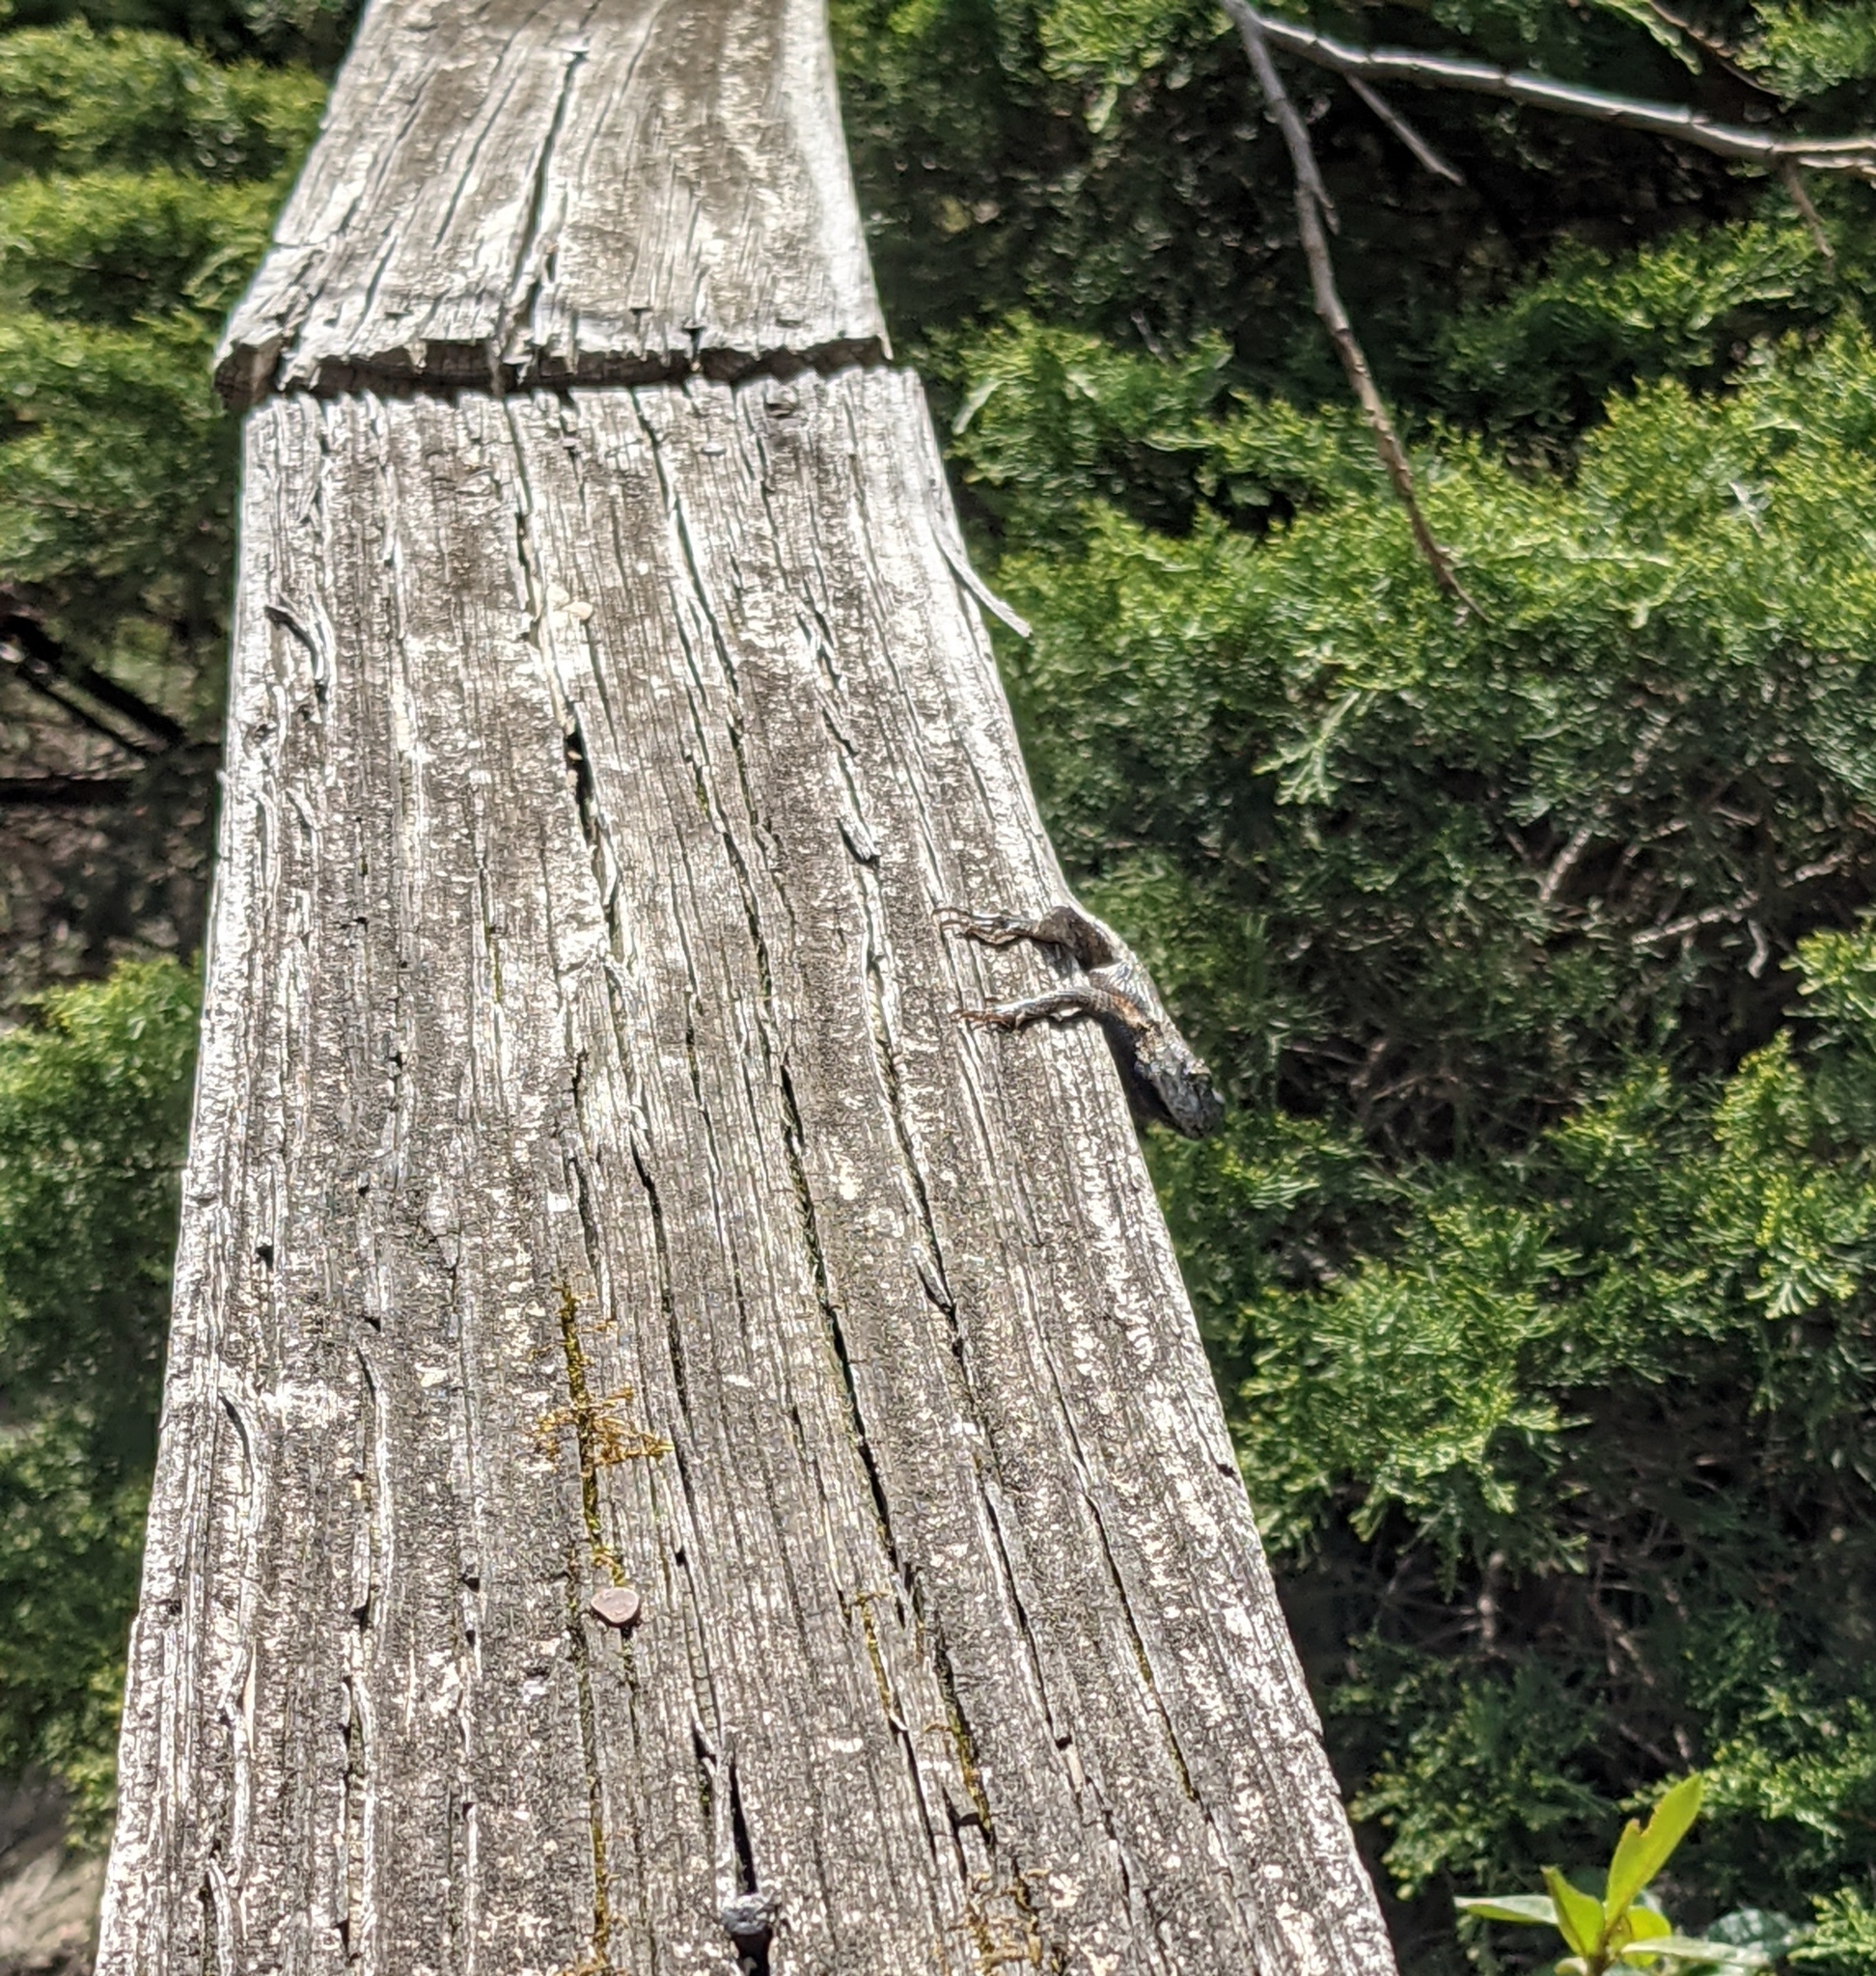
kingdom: Animalia
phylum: Chordata
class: Squamata
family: Phrynosomatidae
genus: Sceloporus
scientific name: Sceloporus undulatus
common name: Eastern fence lizard
